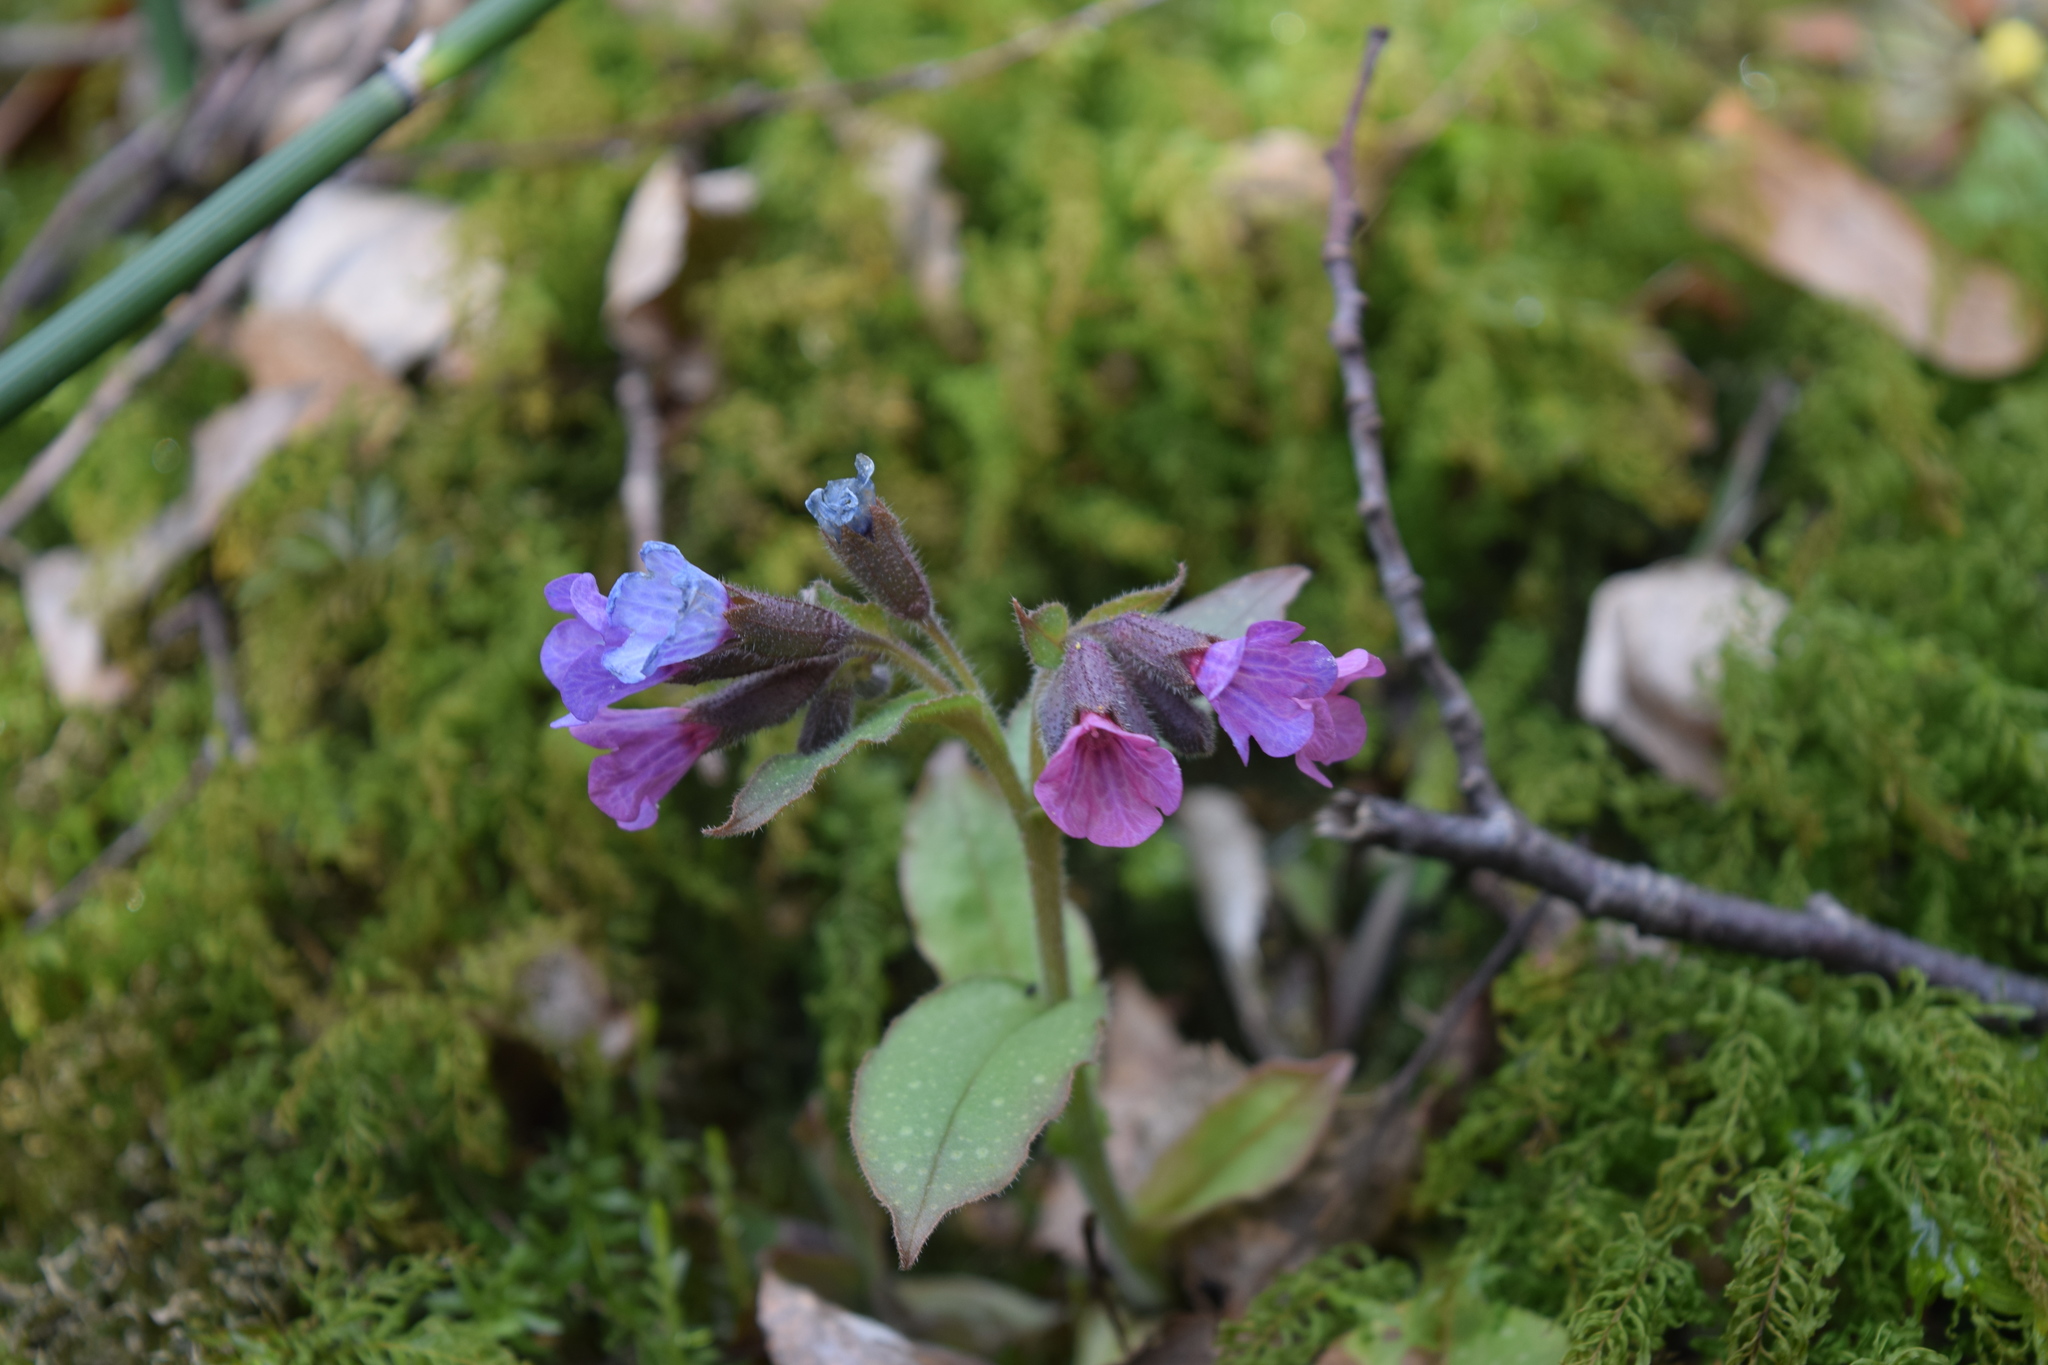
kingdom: Plantae
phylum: Tracheophyta
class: Magnoliopsida
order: Boraginales
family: Boraginaceae
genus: Pulmonaria
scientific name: Pulmonaria obscura
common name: Suffolk lungwort
